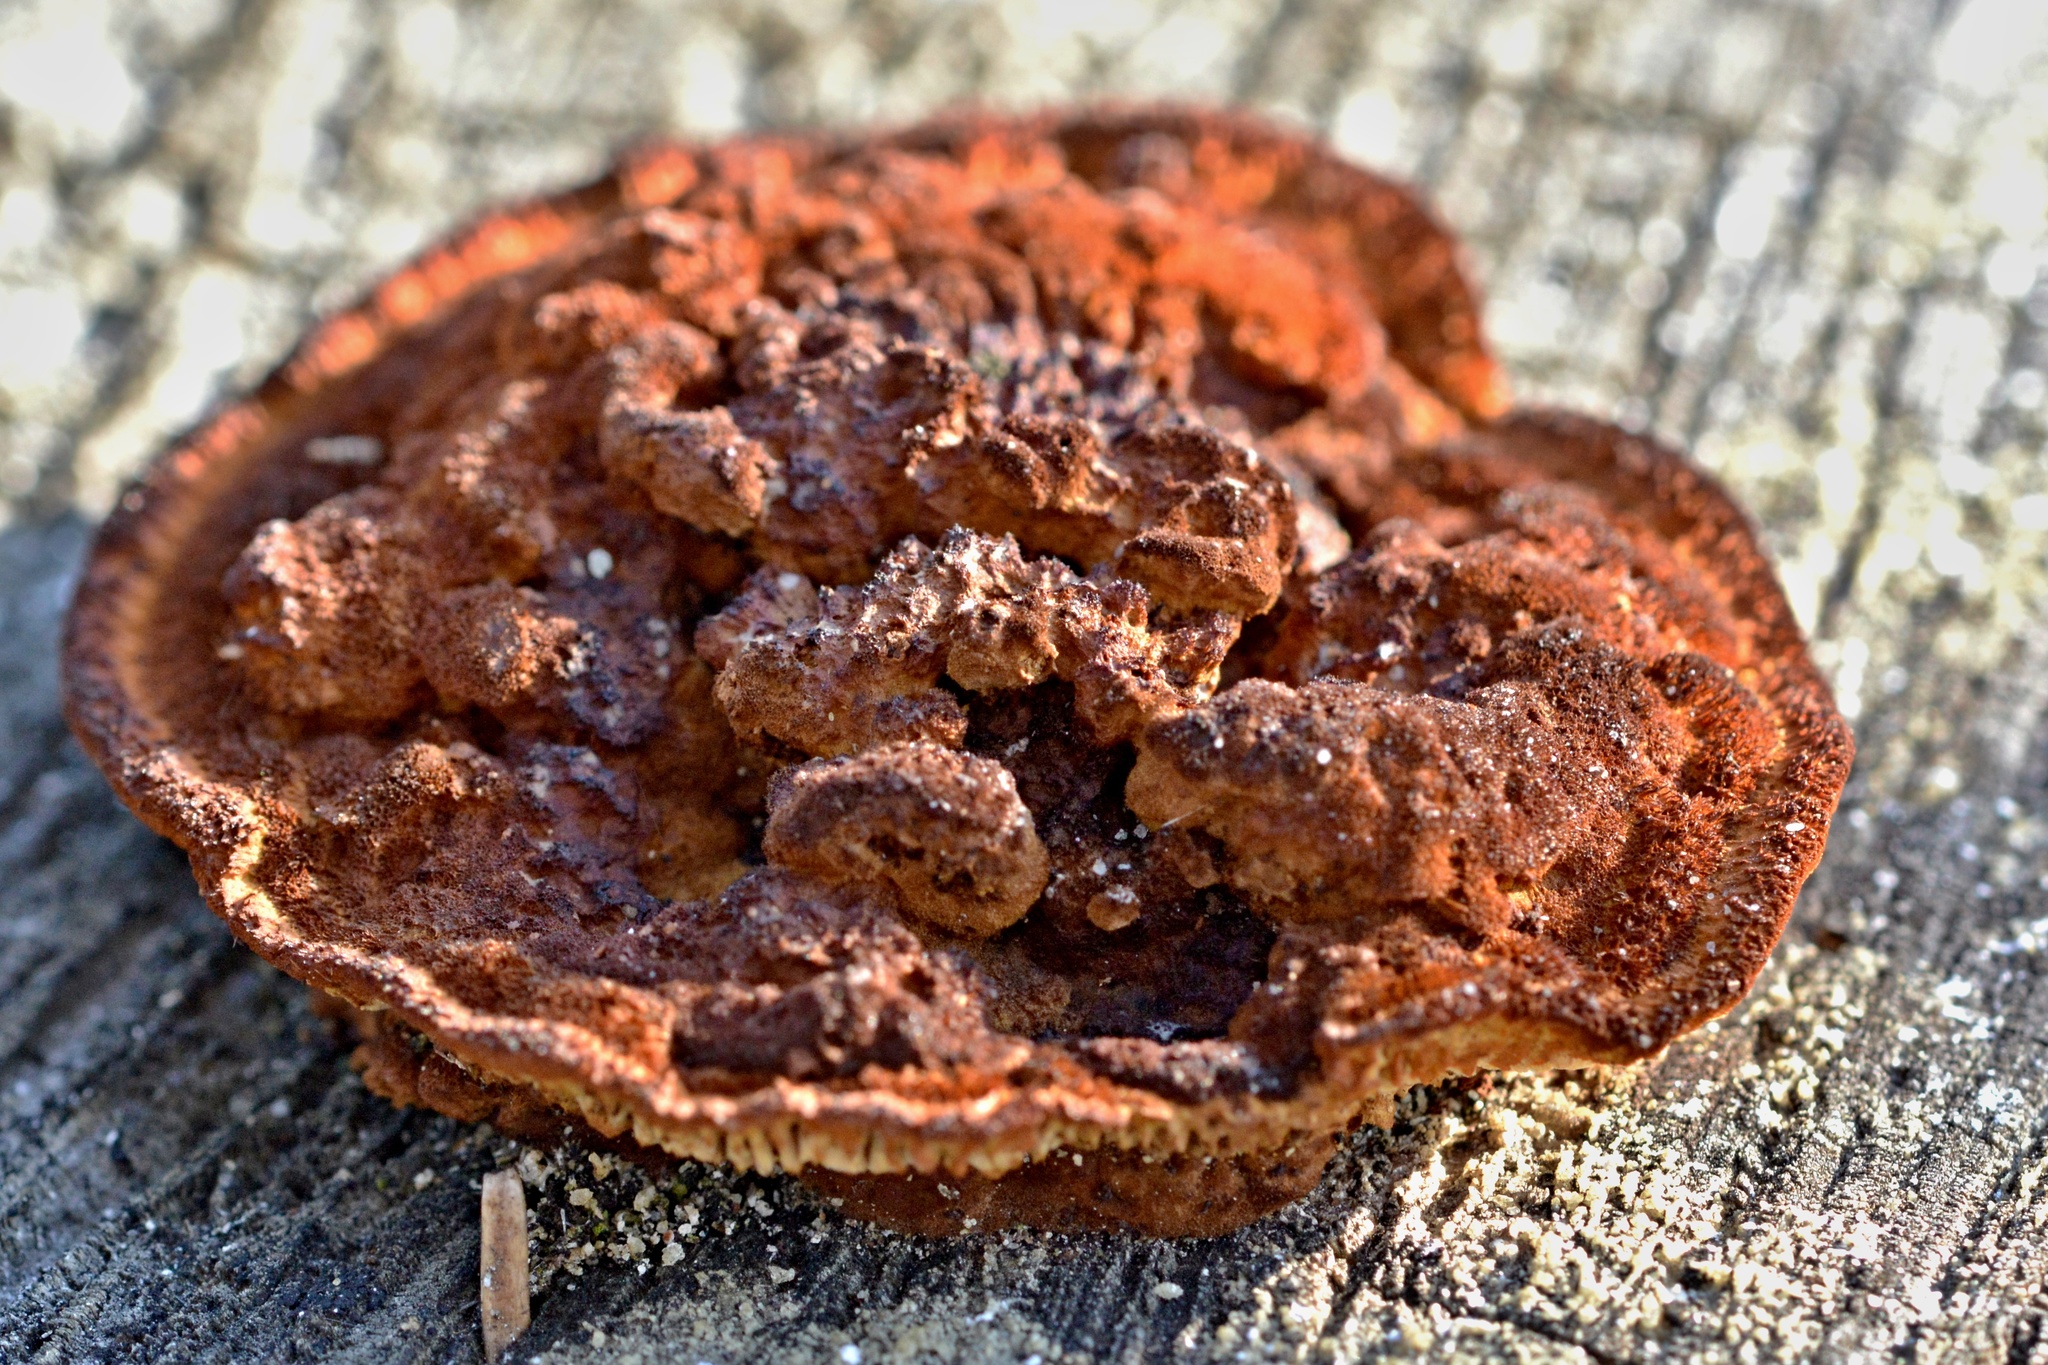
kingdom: Fungi
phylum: Basidiomycota
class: Agaricomycetes
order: Gloeophyllales
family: Gloeophyllaceae
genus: Gloeophyllum
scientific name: Gloeophyllum sepiarium
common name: Conifer mazegill
